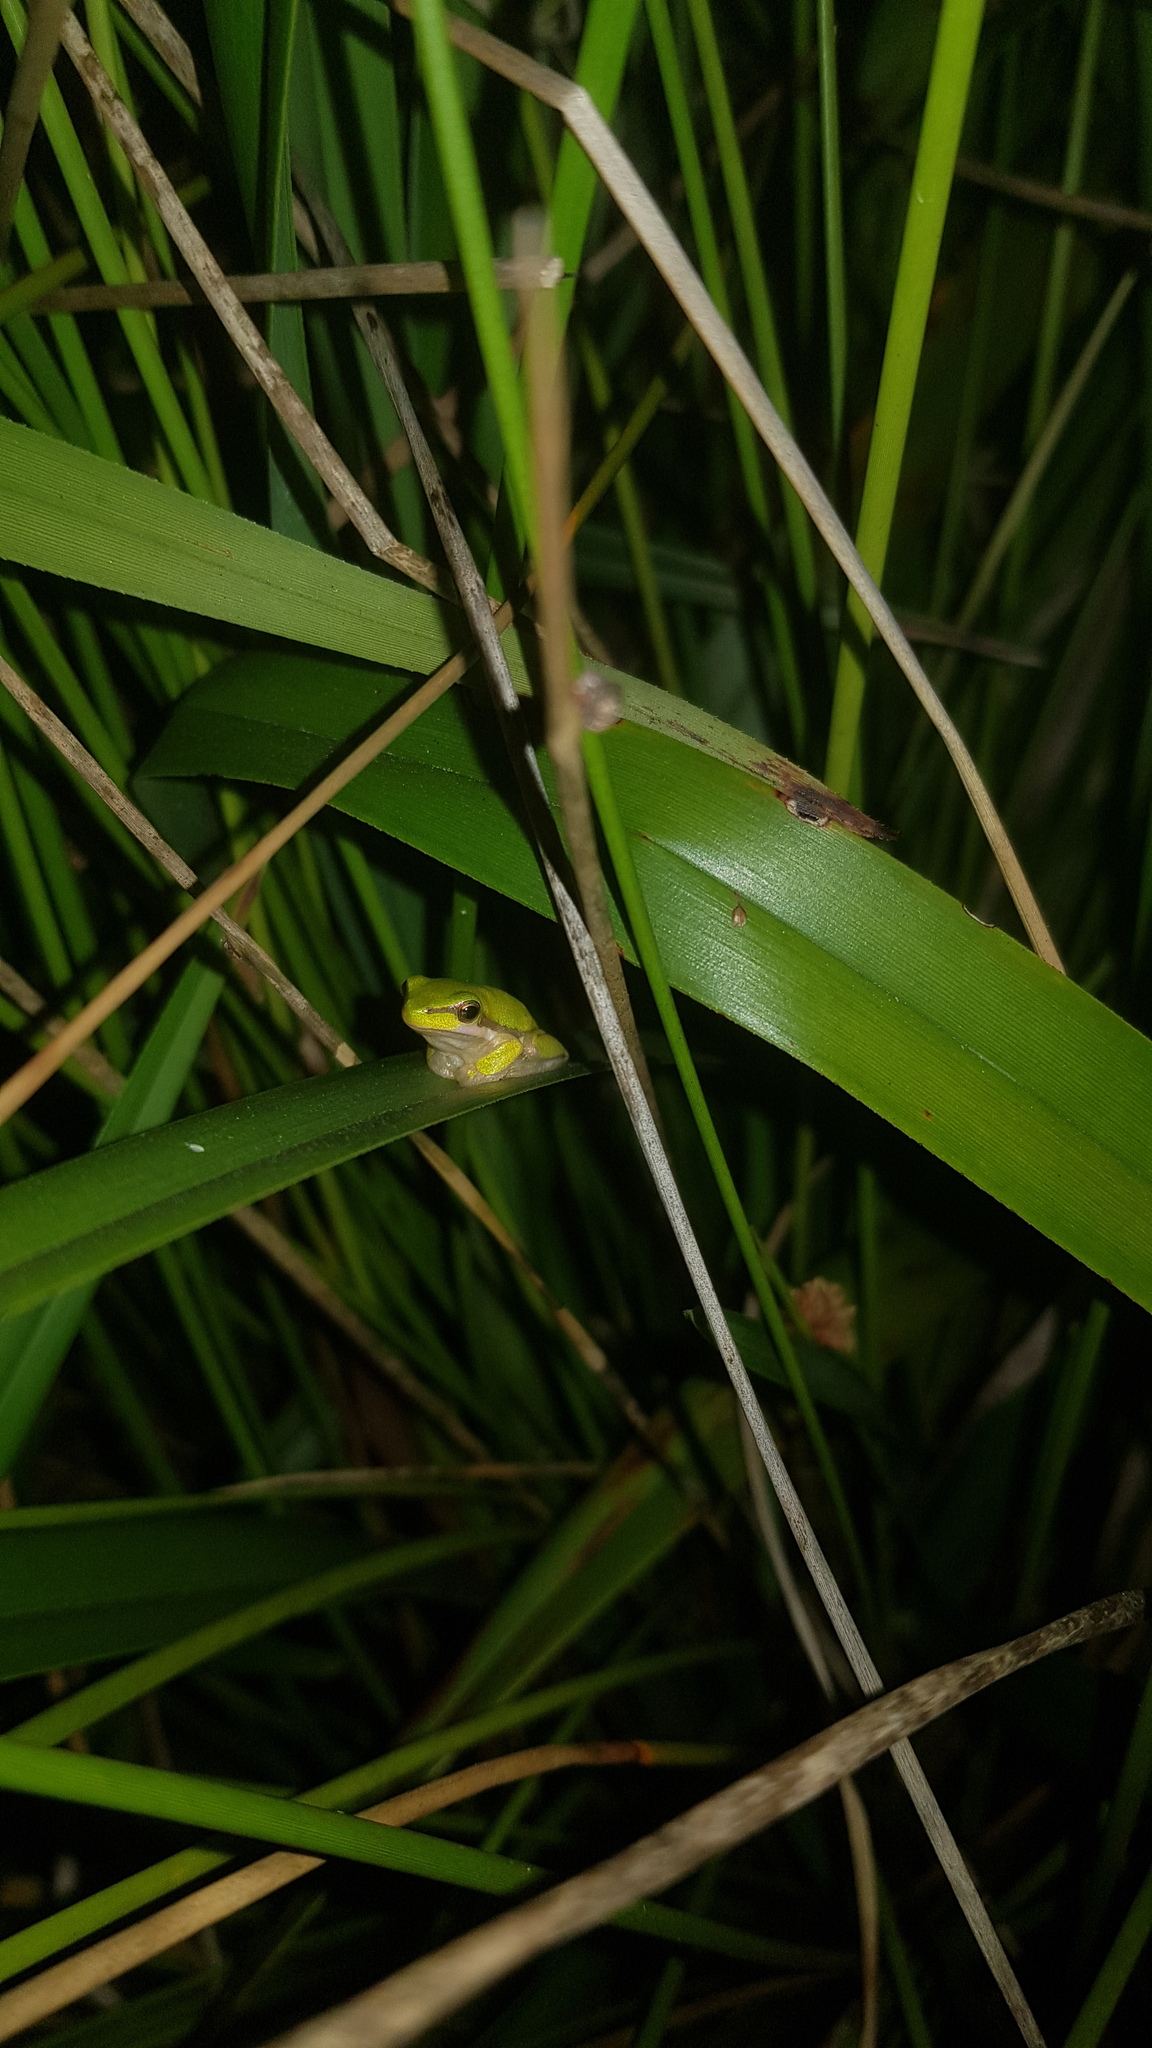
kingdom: Animalia
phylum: Chordata
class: Amphibia
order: Anura
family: Pelodryadidae
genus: Litoria
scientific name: Litoria fallax
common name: Eastern dwarf treefrog
